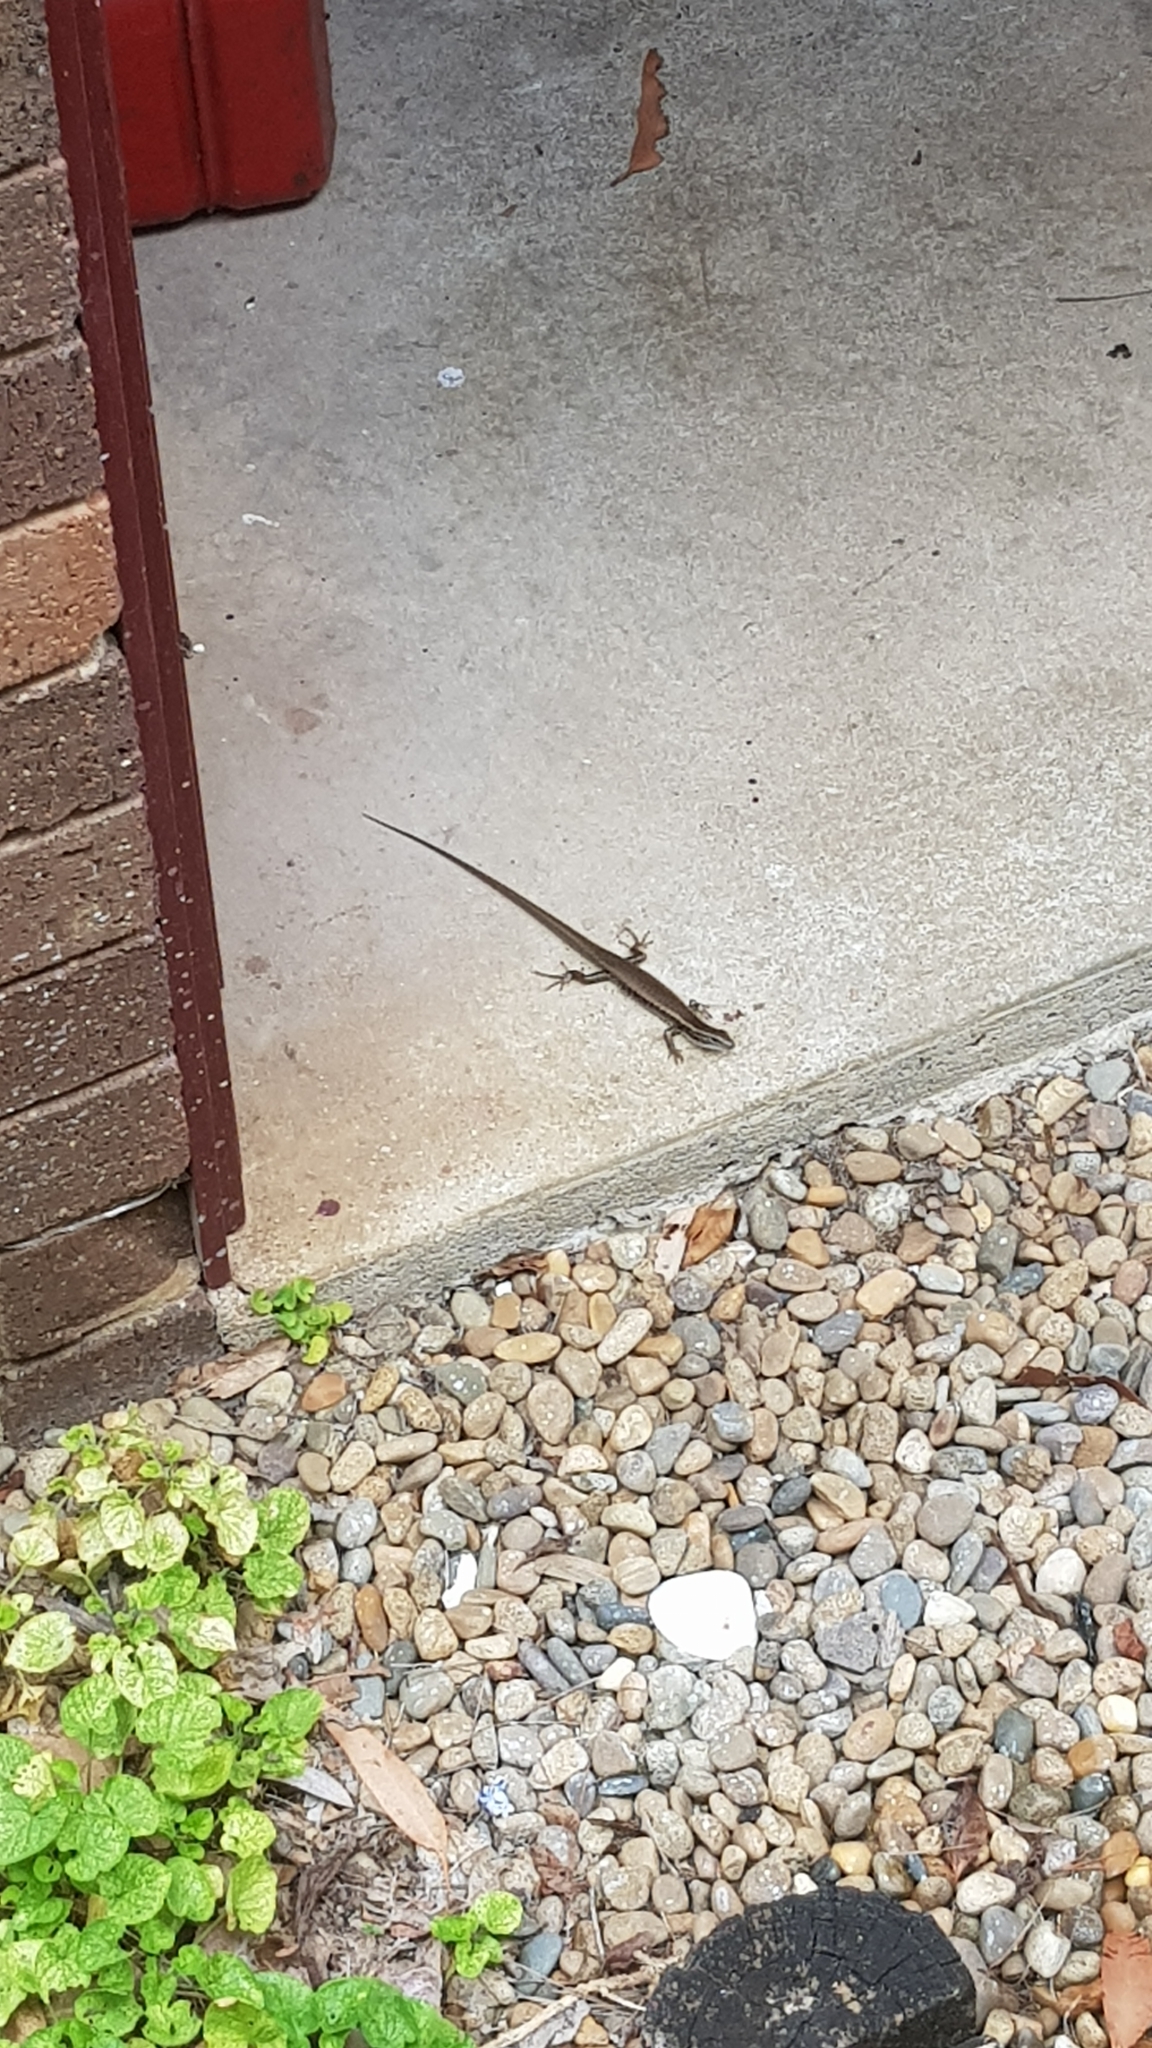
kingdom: Animalia
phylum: Chordata
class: Squamata
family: Scincidae
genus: Eulamprus
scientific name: Eulamprus quoyii
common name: Eastern water skink
